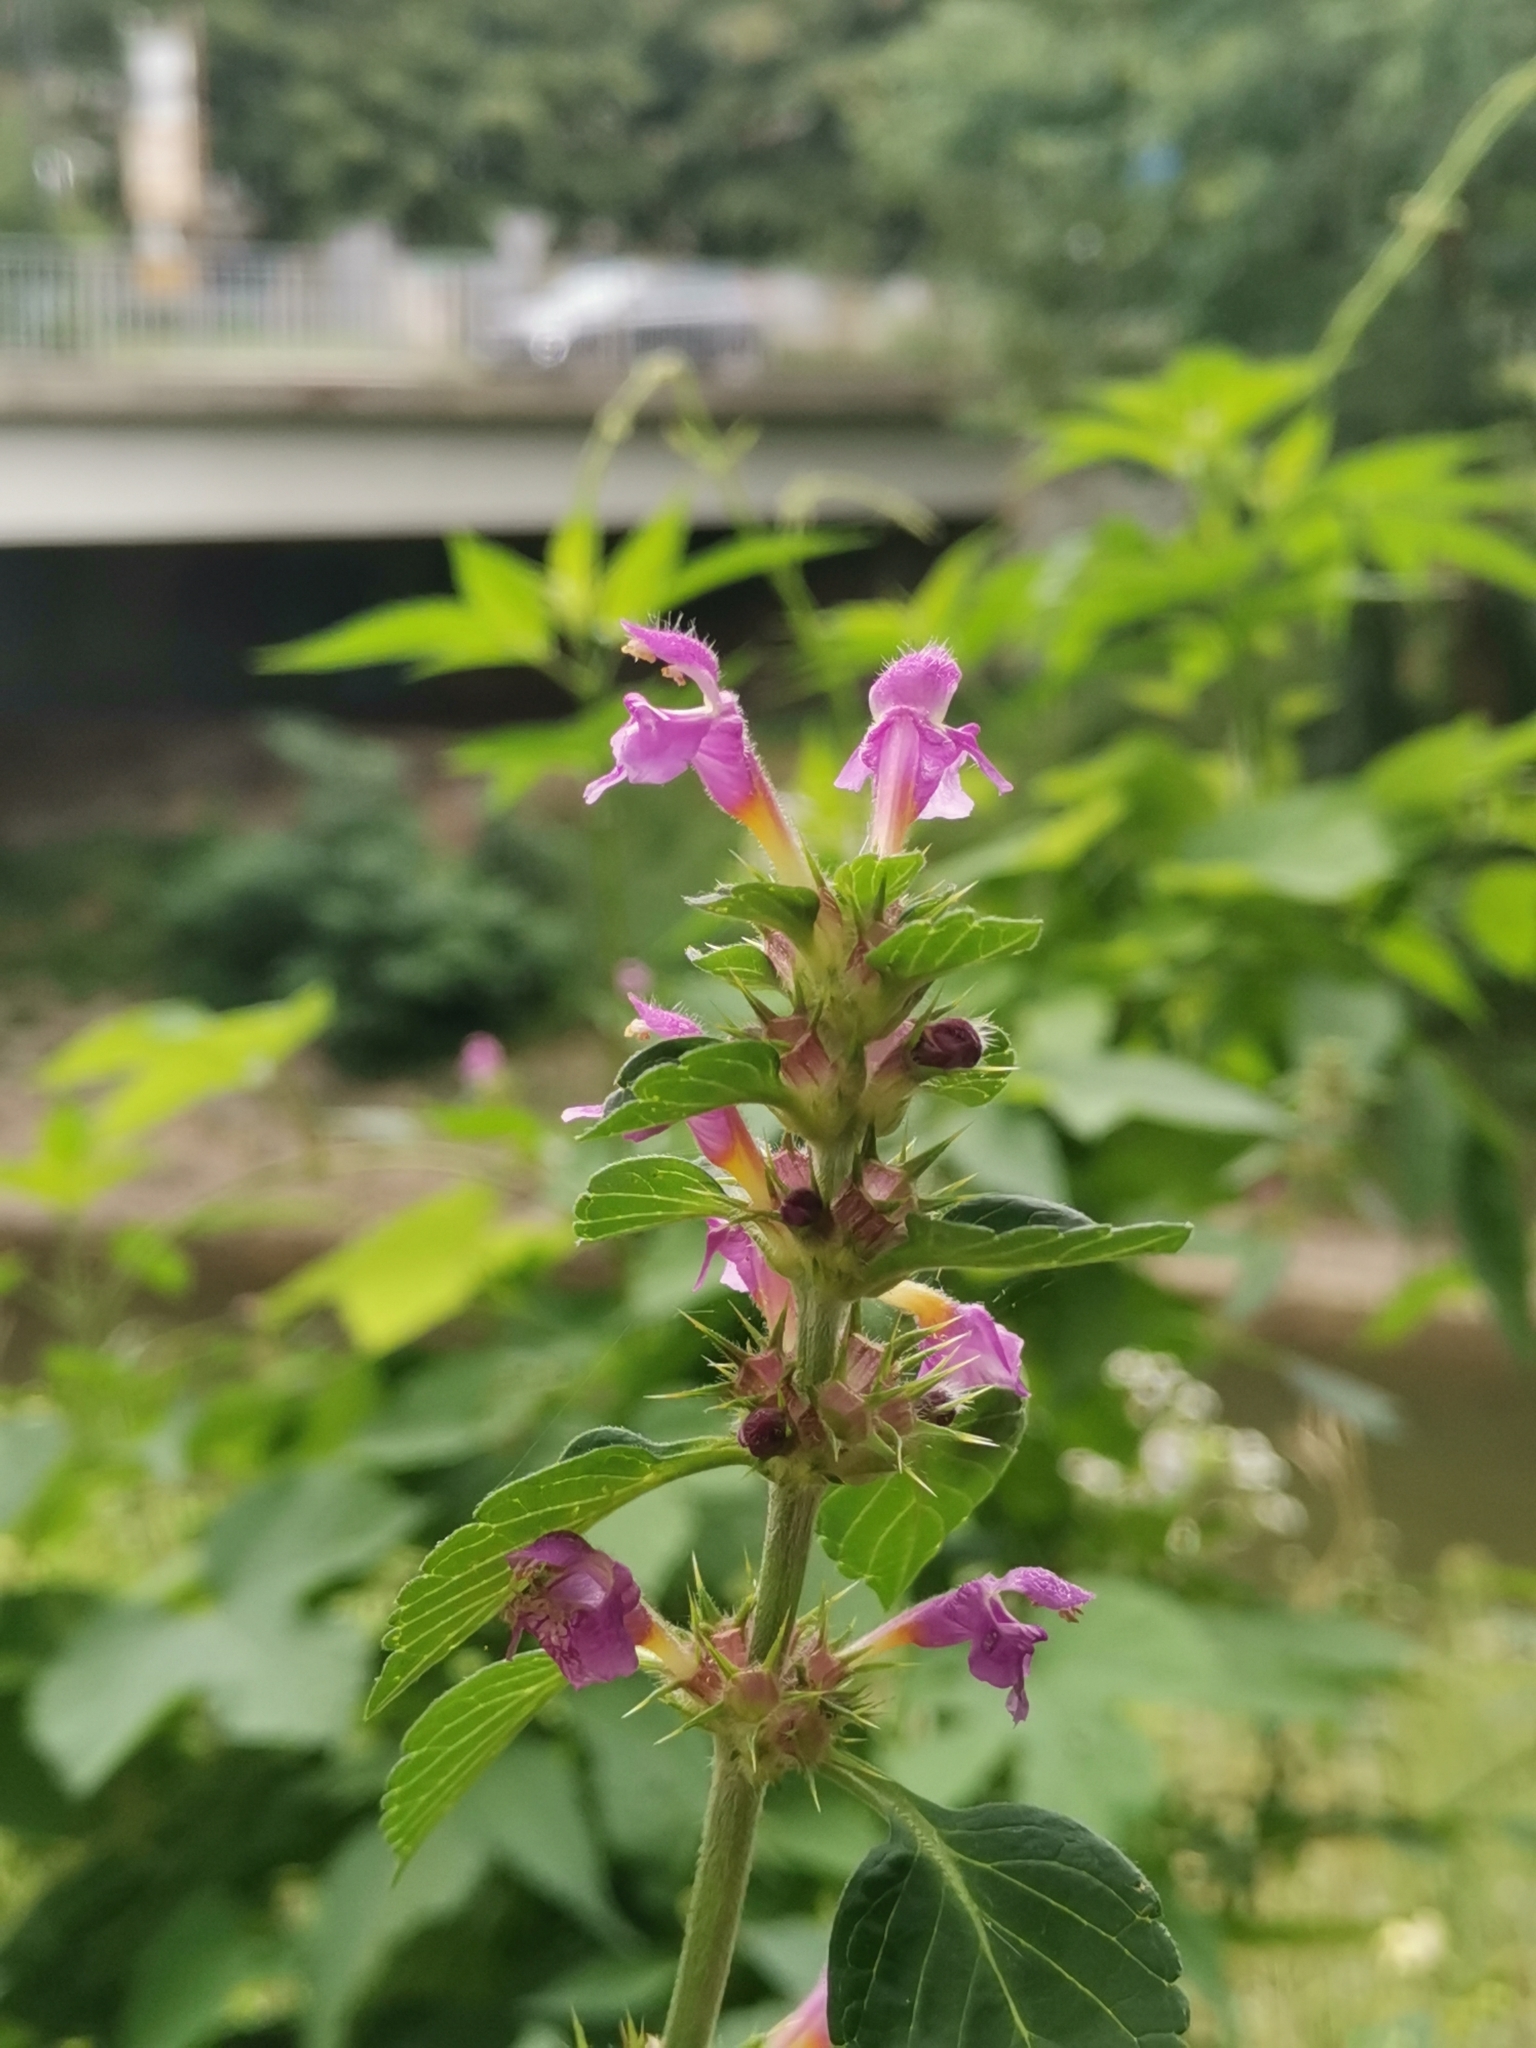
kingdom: Plantae
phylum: Tracheophyta
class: Magnoliopsida
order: Lamiales
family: Lamiaceae
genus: Galeopsis
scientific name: Galeopsis pubescens
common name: Downy hemp-nettle
